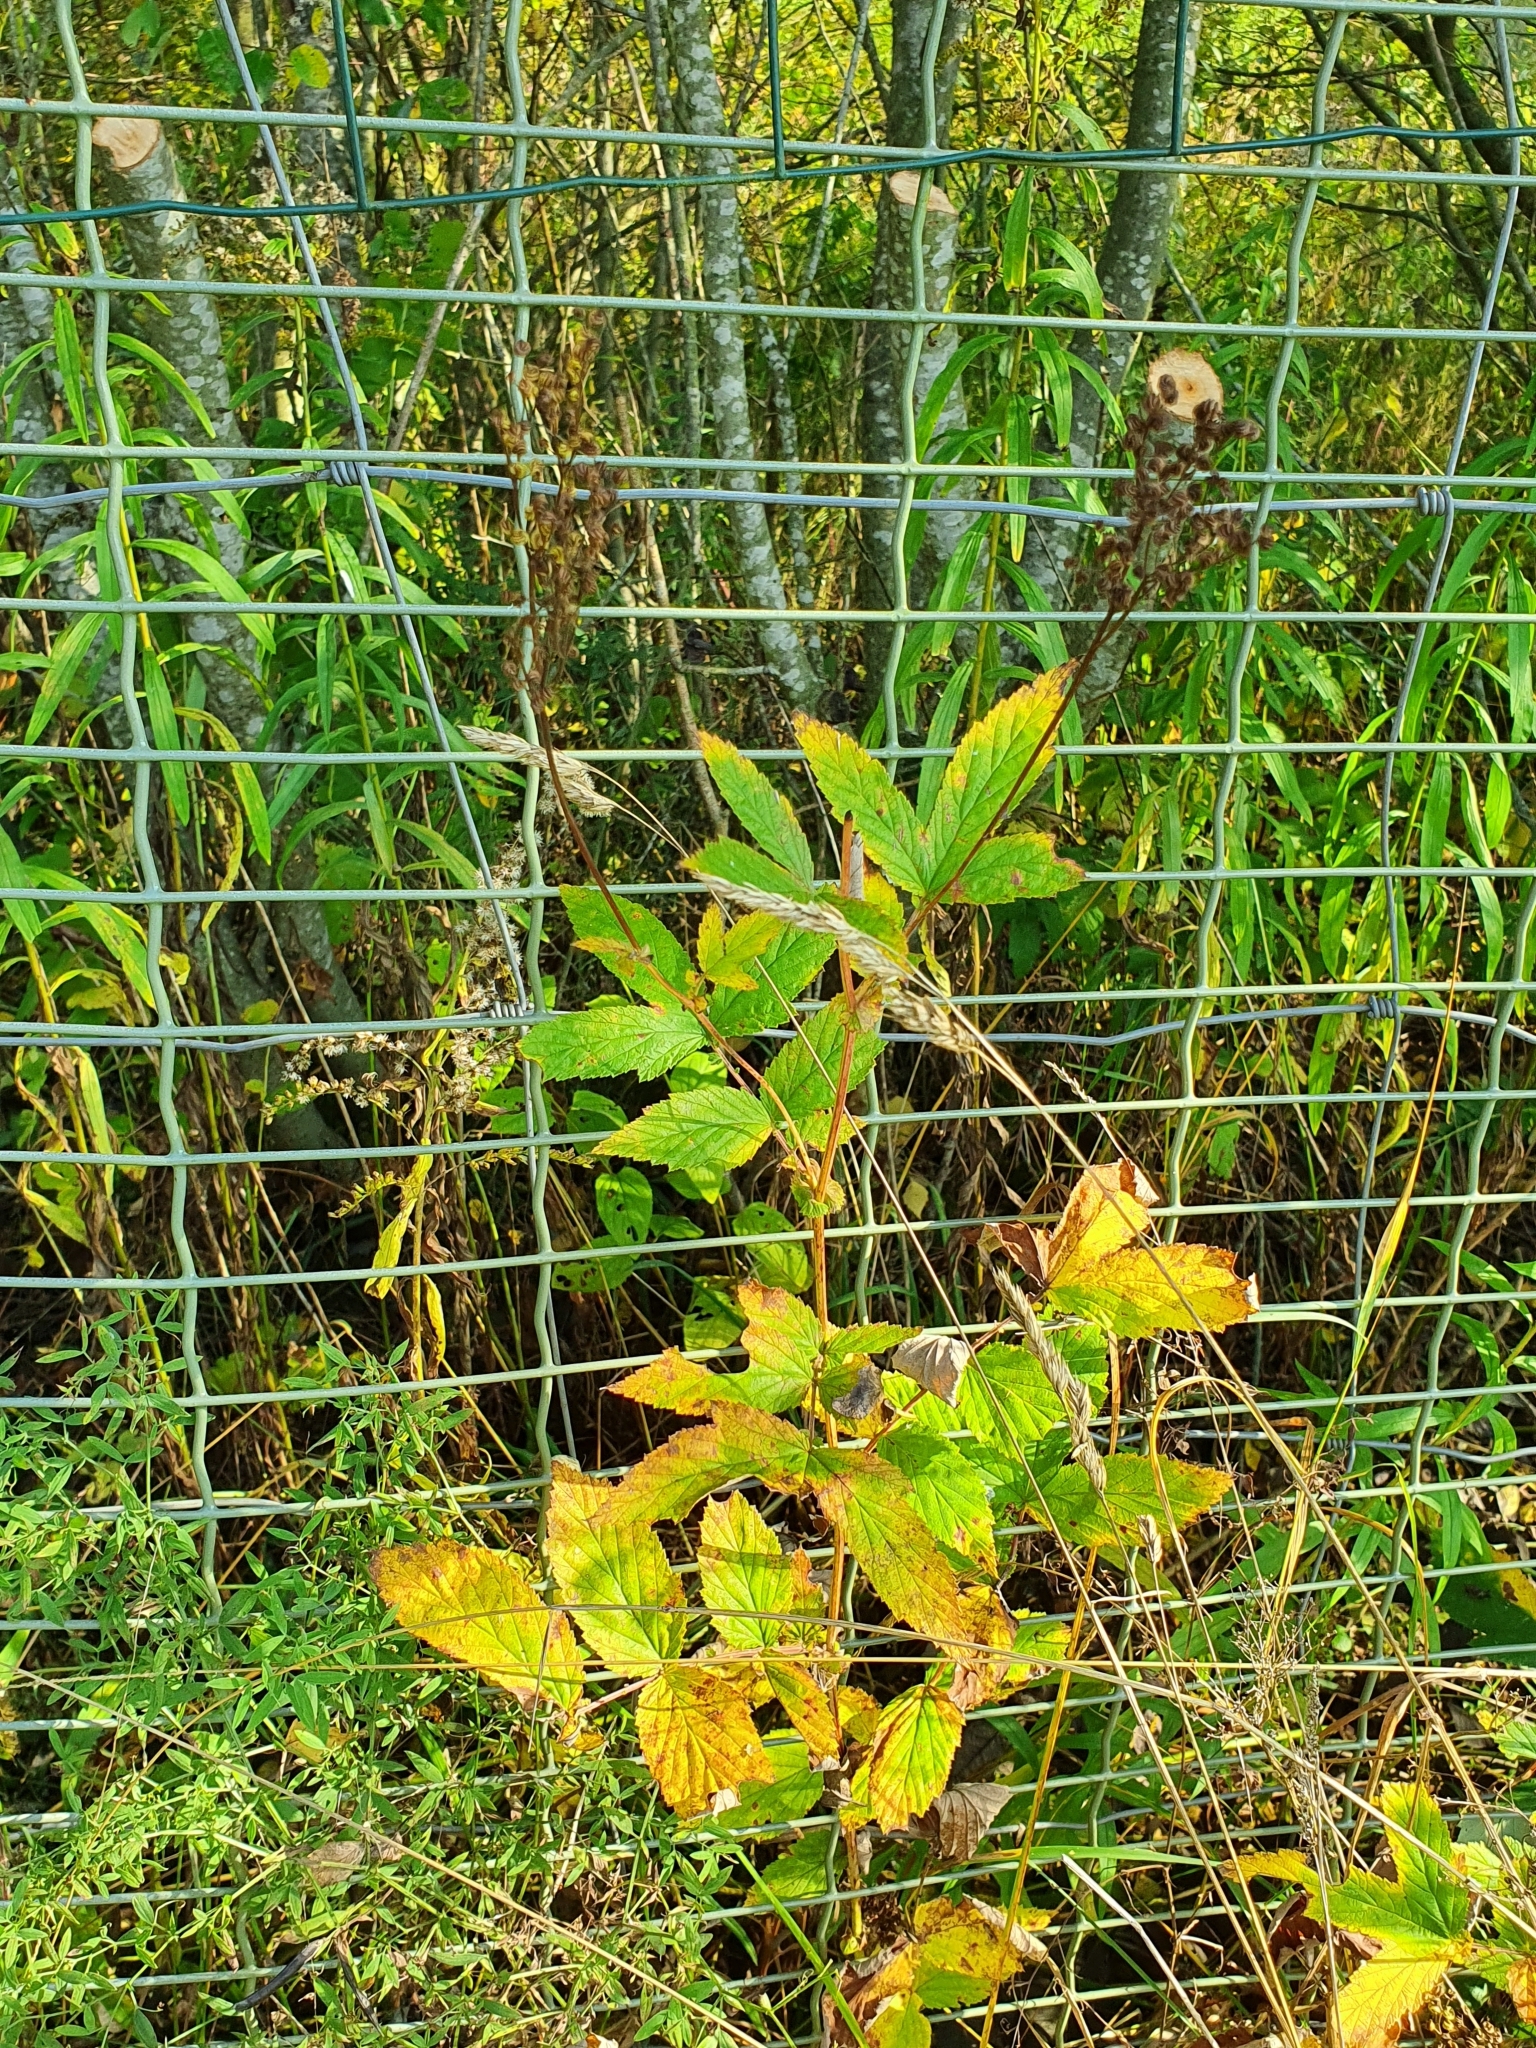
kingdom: Plantae
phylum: Tracheophyta
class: Magnoliopsida
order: Rosales
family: Rosaceae
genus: Filipendula
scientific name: Filipendula ulmaria
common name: Meadowsweet
